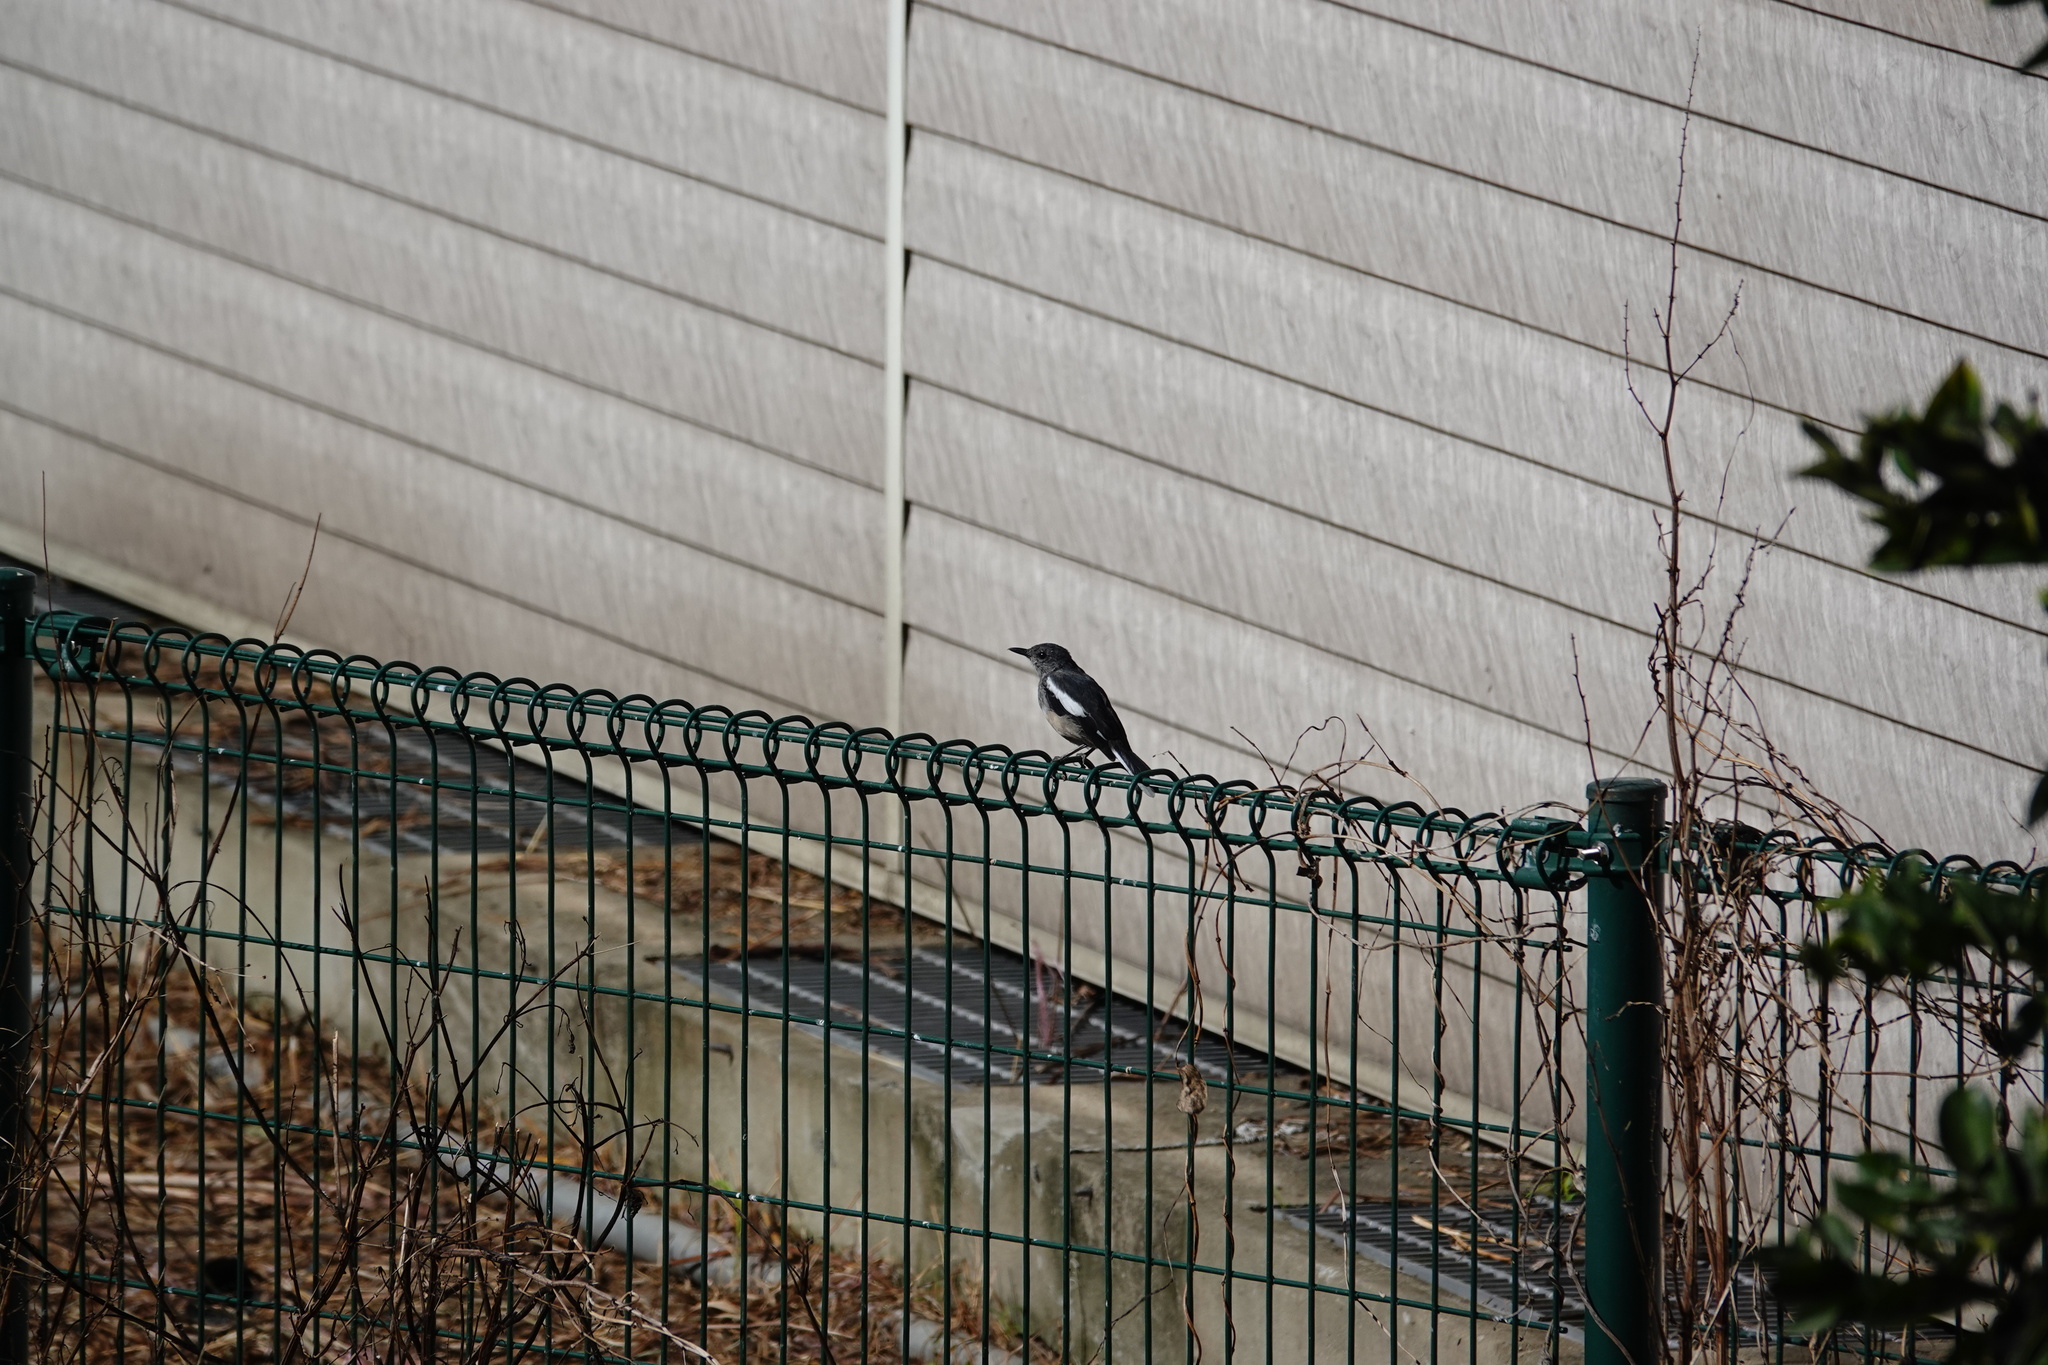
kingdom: Animalia
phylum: Chordata
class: Aves
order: Passeriformes
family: Muscicapidae
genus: Copsychus
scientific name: Copsychus saularis
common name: Oriental magpie-robin
